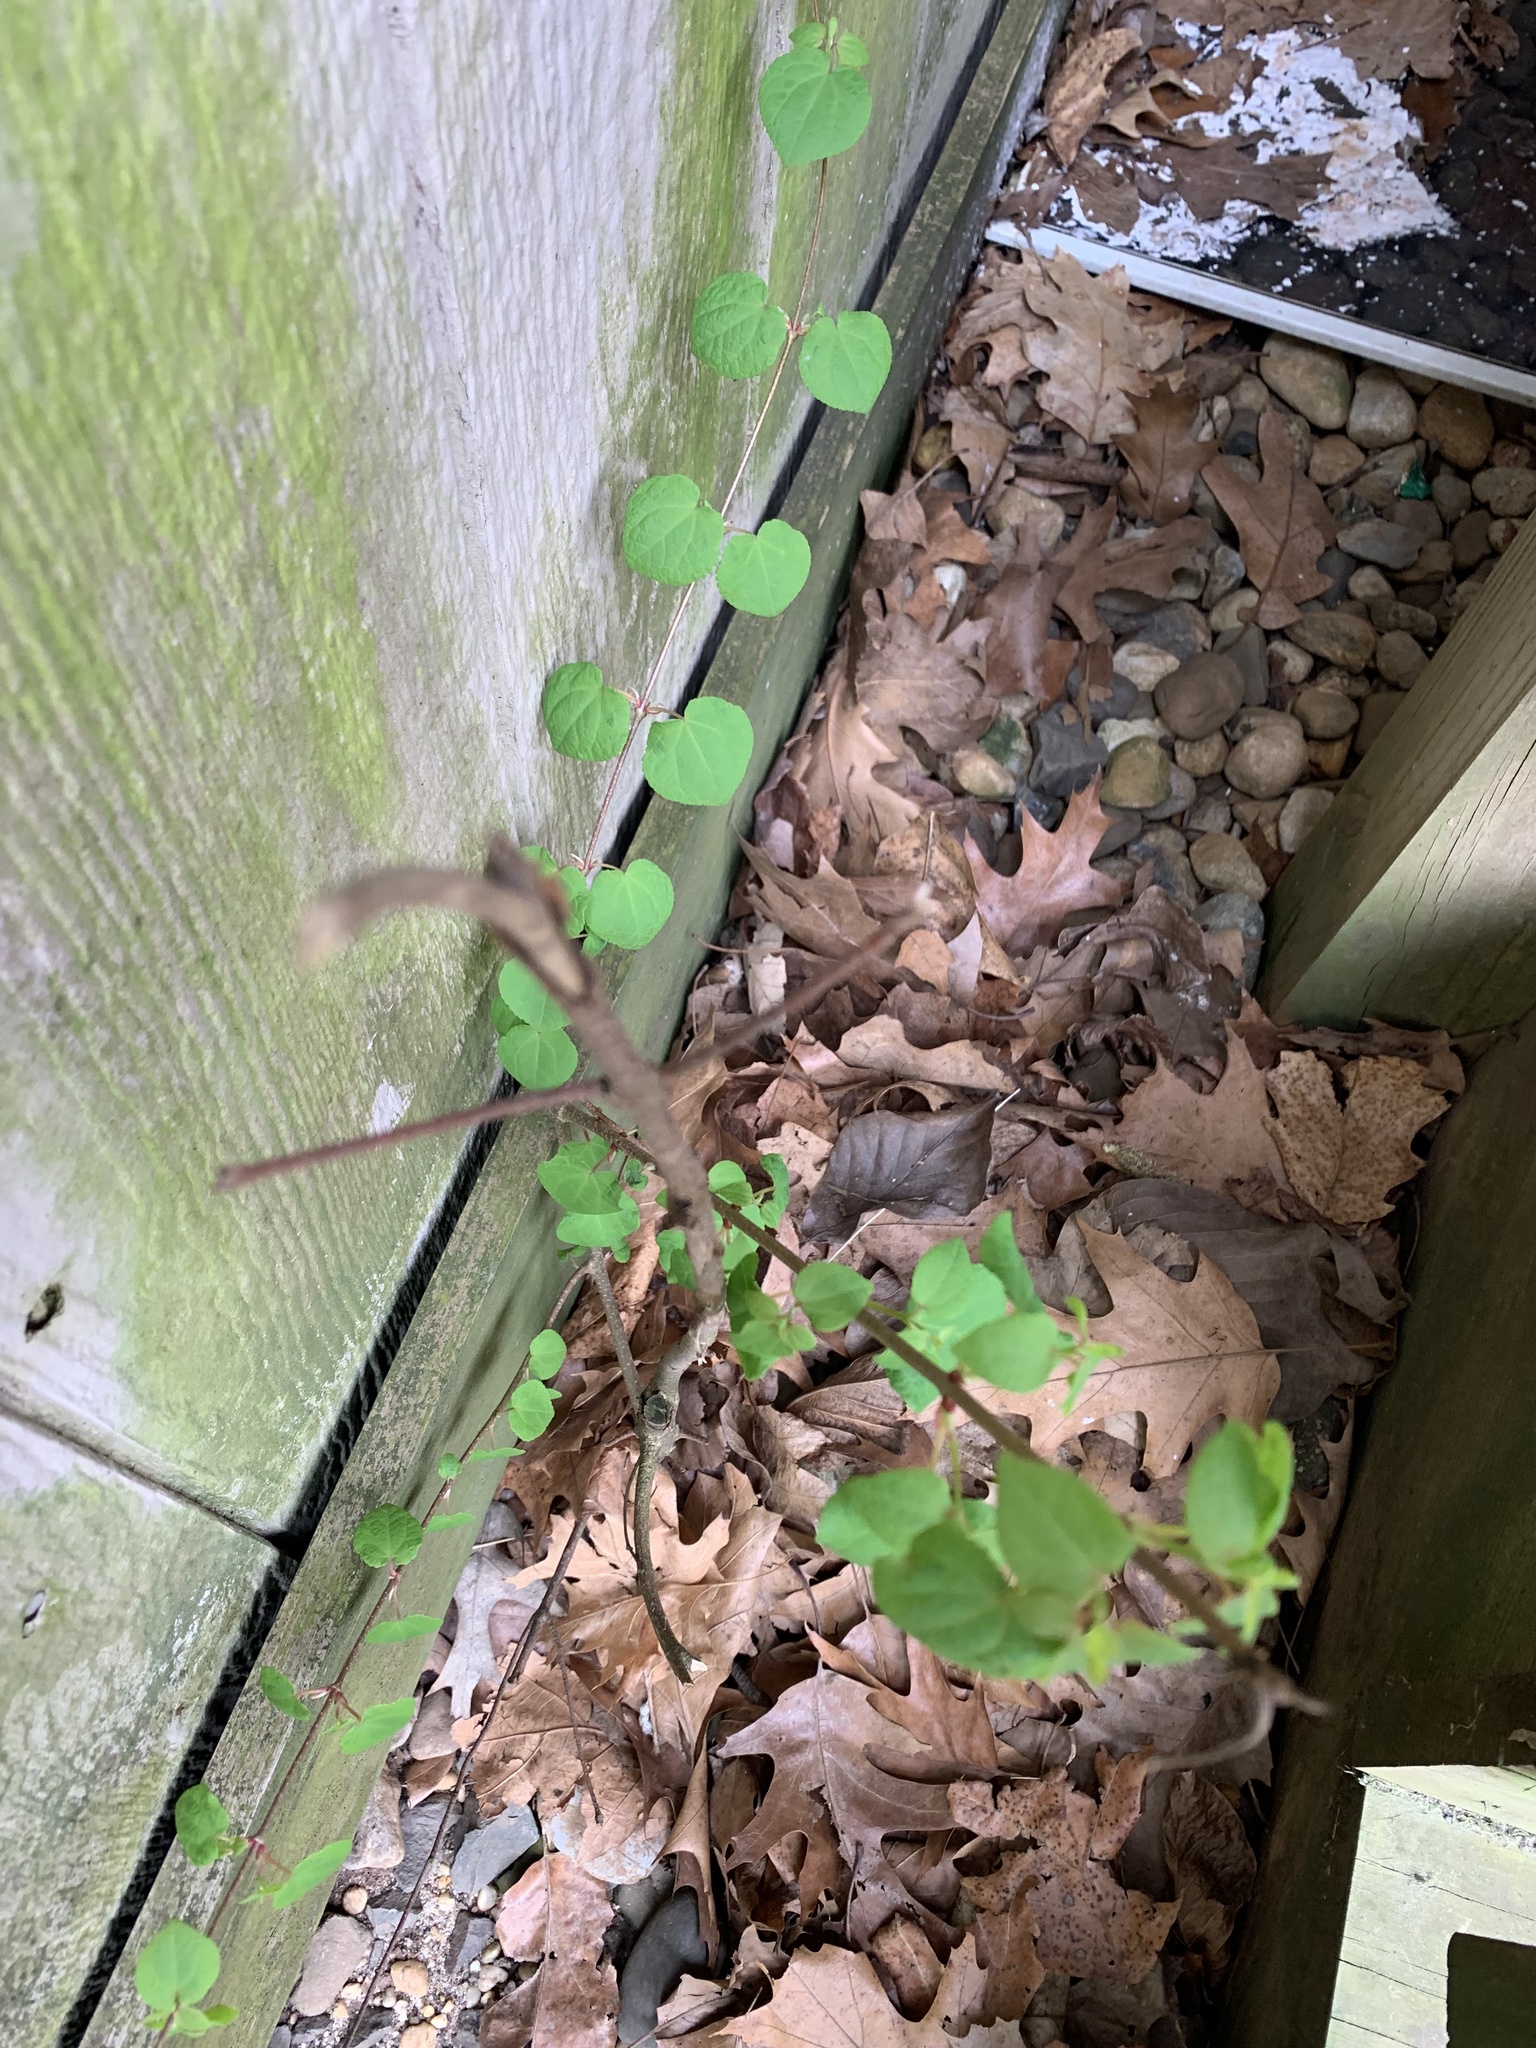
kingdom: Plantae
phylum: Tracheophyta
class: Magnoliopsida
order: Saxifragales
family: Cercidiphyllaceae
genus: Cercidiphyllum
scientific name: Cercidiphyllum japonicum
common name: Katsura tree
